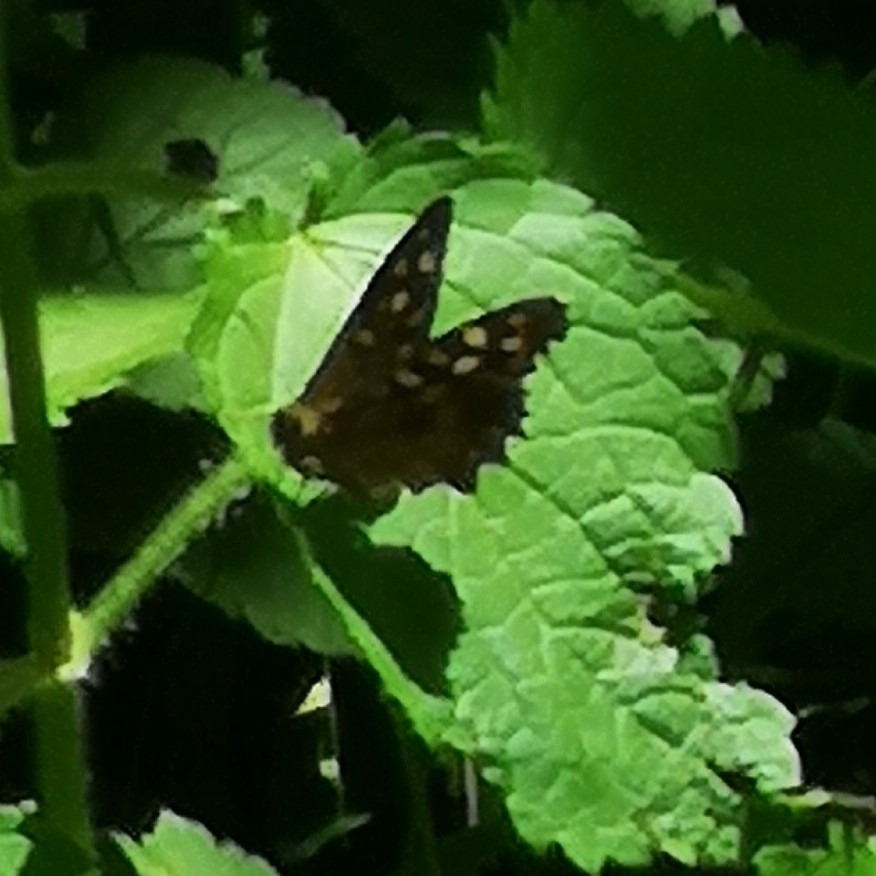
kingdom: Animalia
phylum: Arthropoda
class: Insecta
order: Lepidoptera
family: Nymphalidae
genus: Pararge
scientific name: Pararge aegeria
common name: Speckled wood
